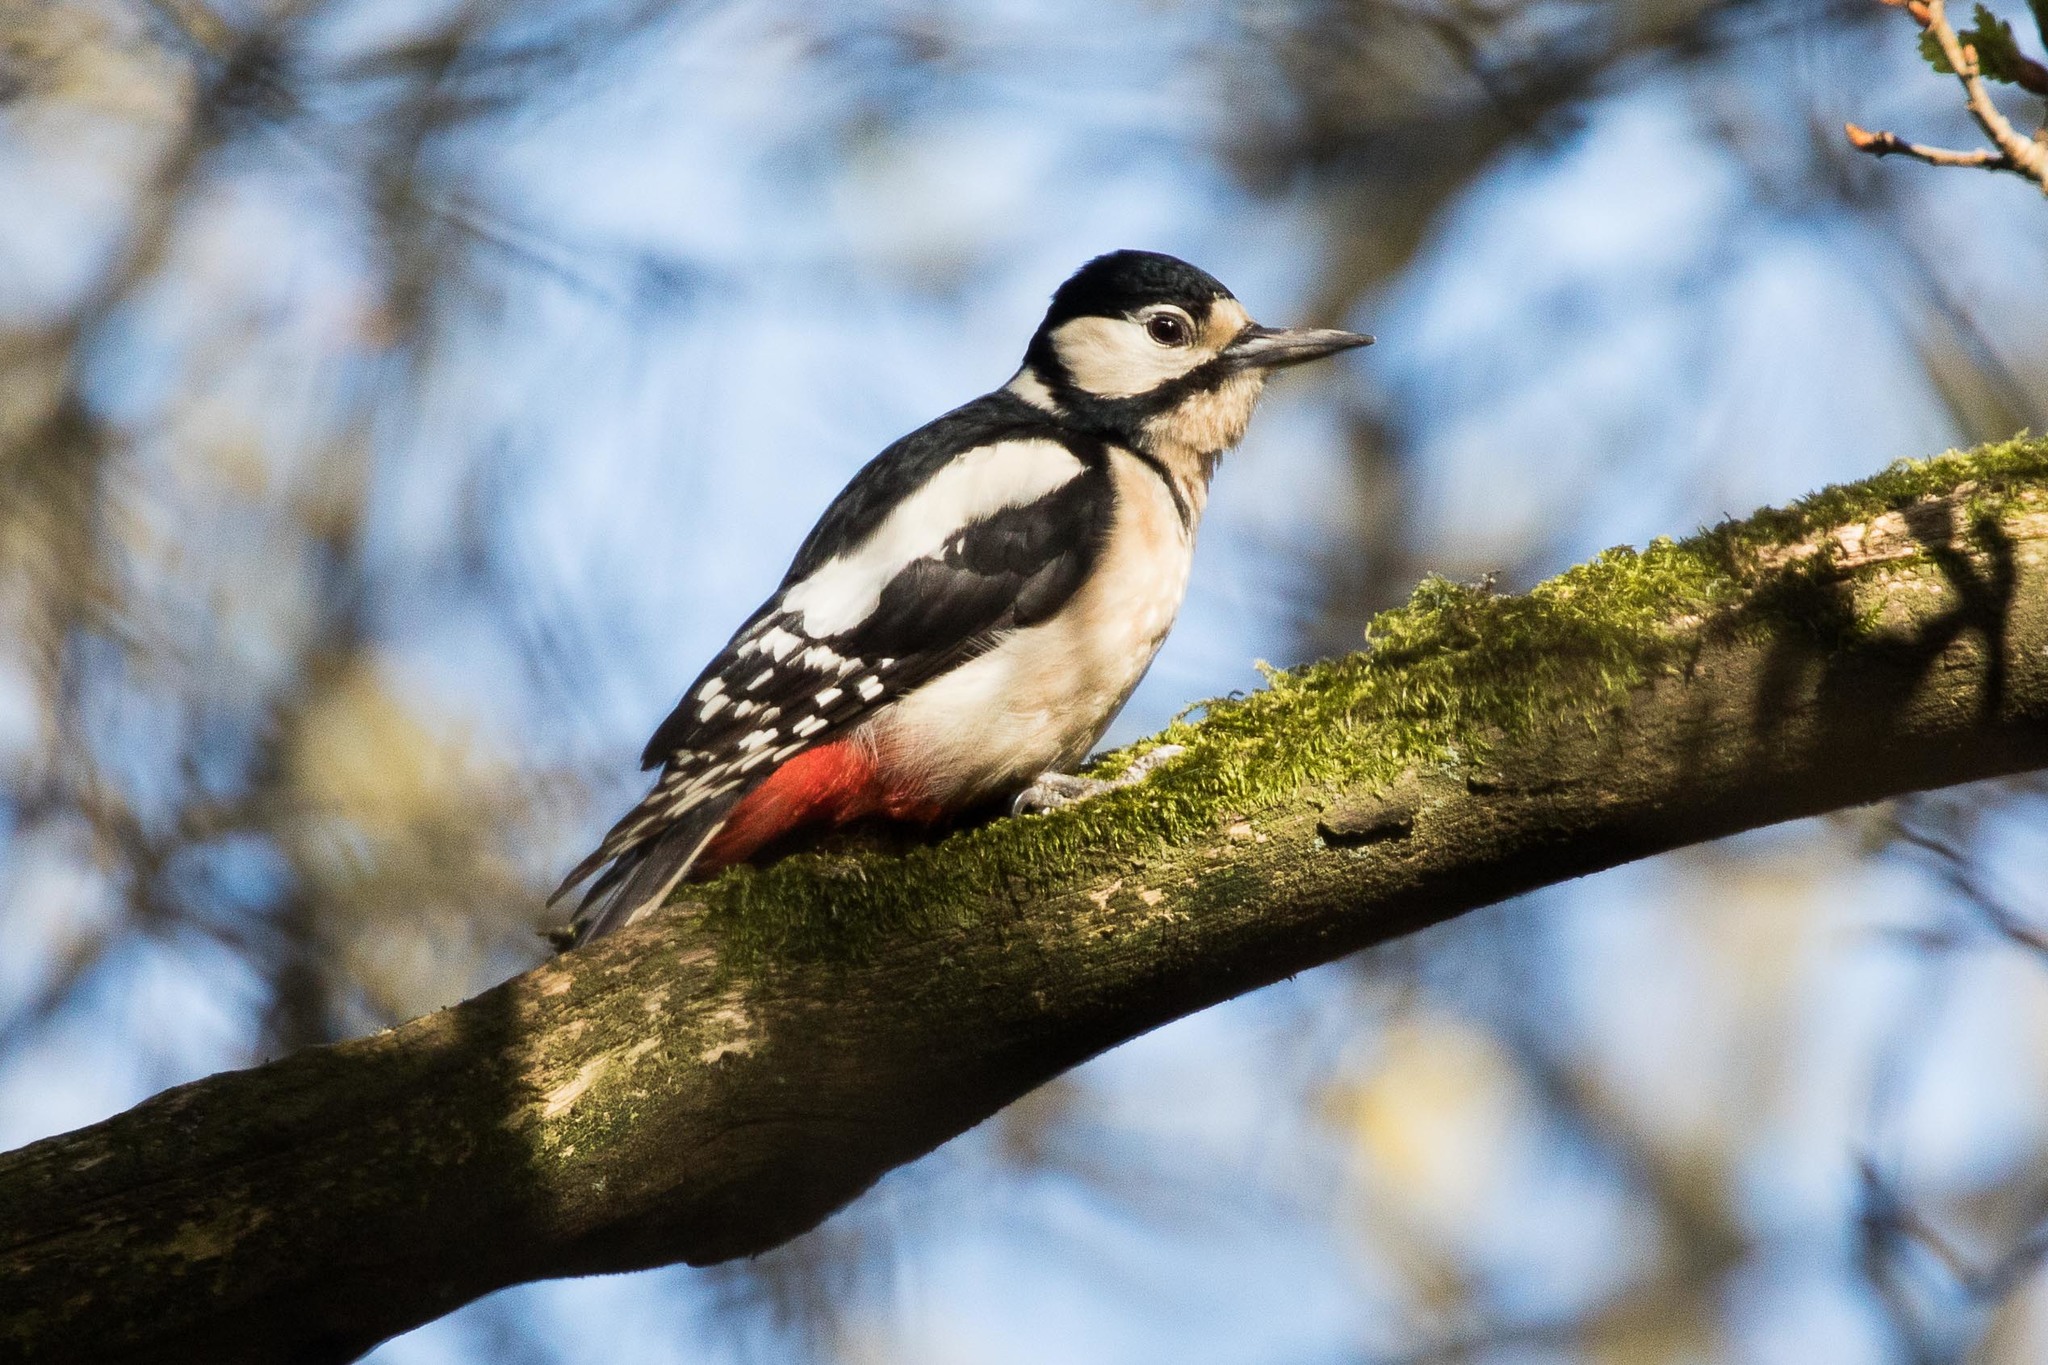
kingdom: Animalia
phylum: Chordata
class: Aves
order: Piciformes
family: Picidae
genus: Dendrocopos
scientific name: Dendrocopos major
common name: Great spotted woodpecker
